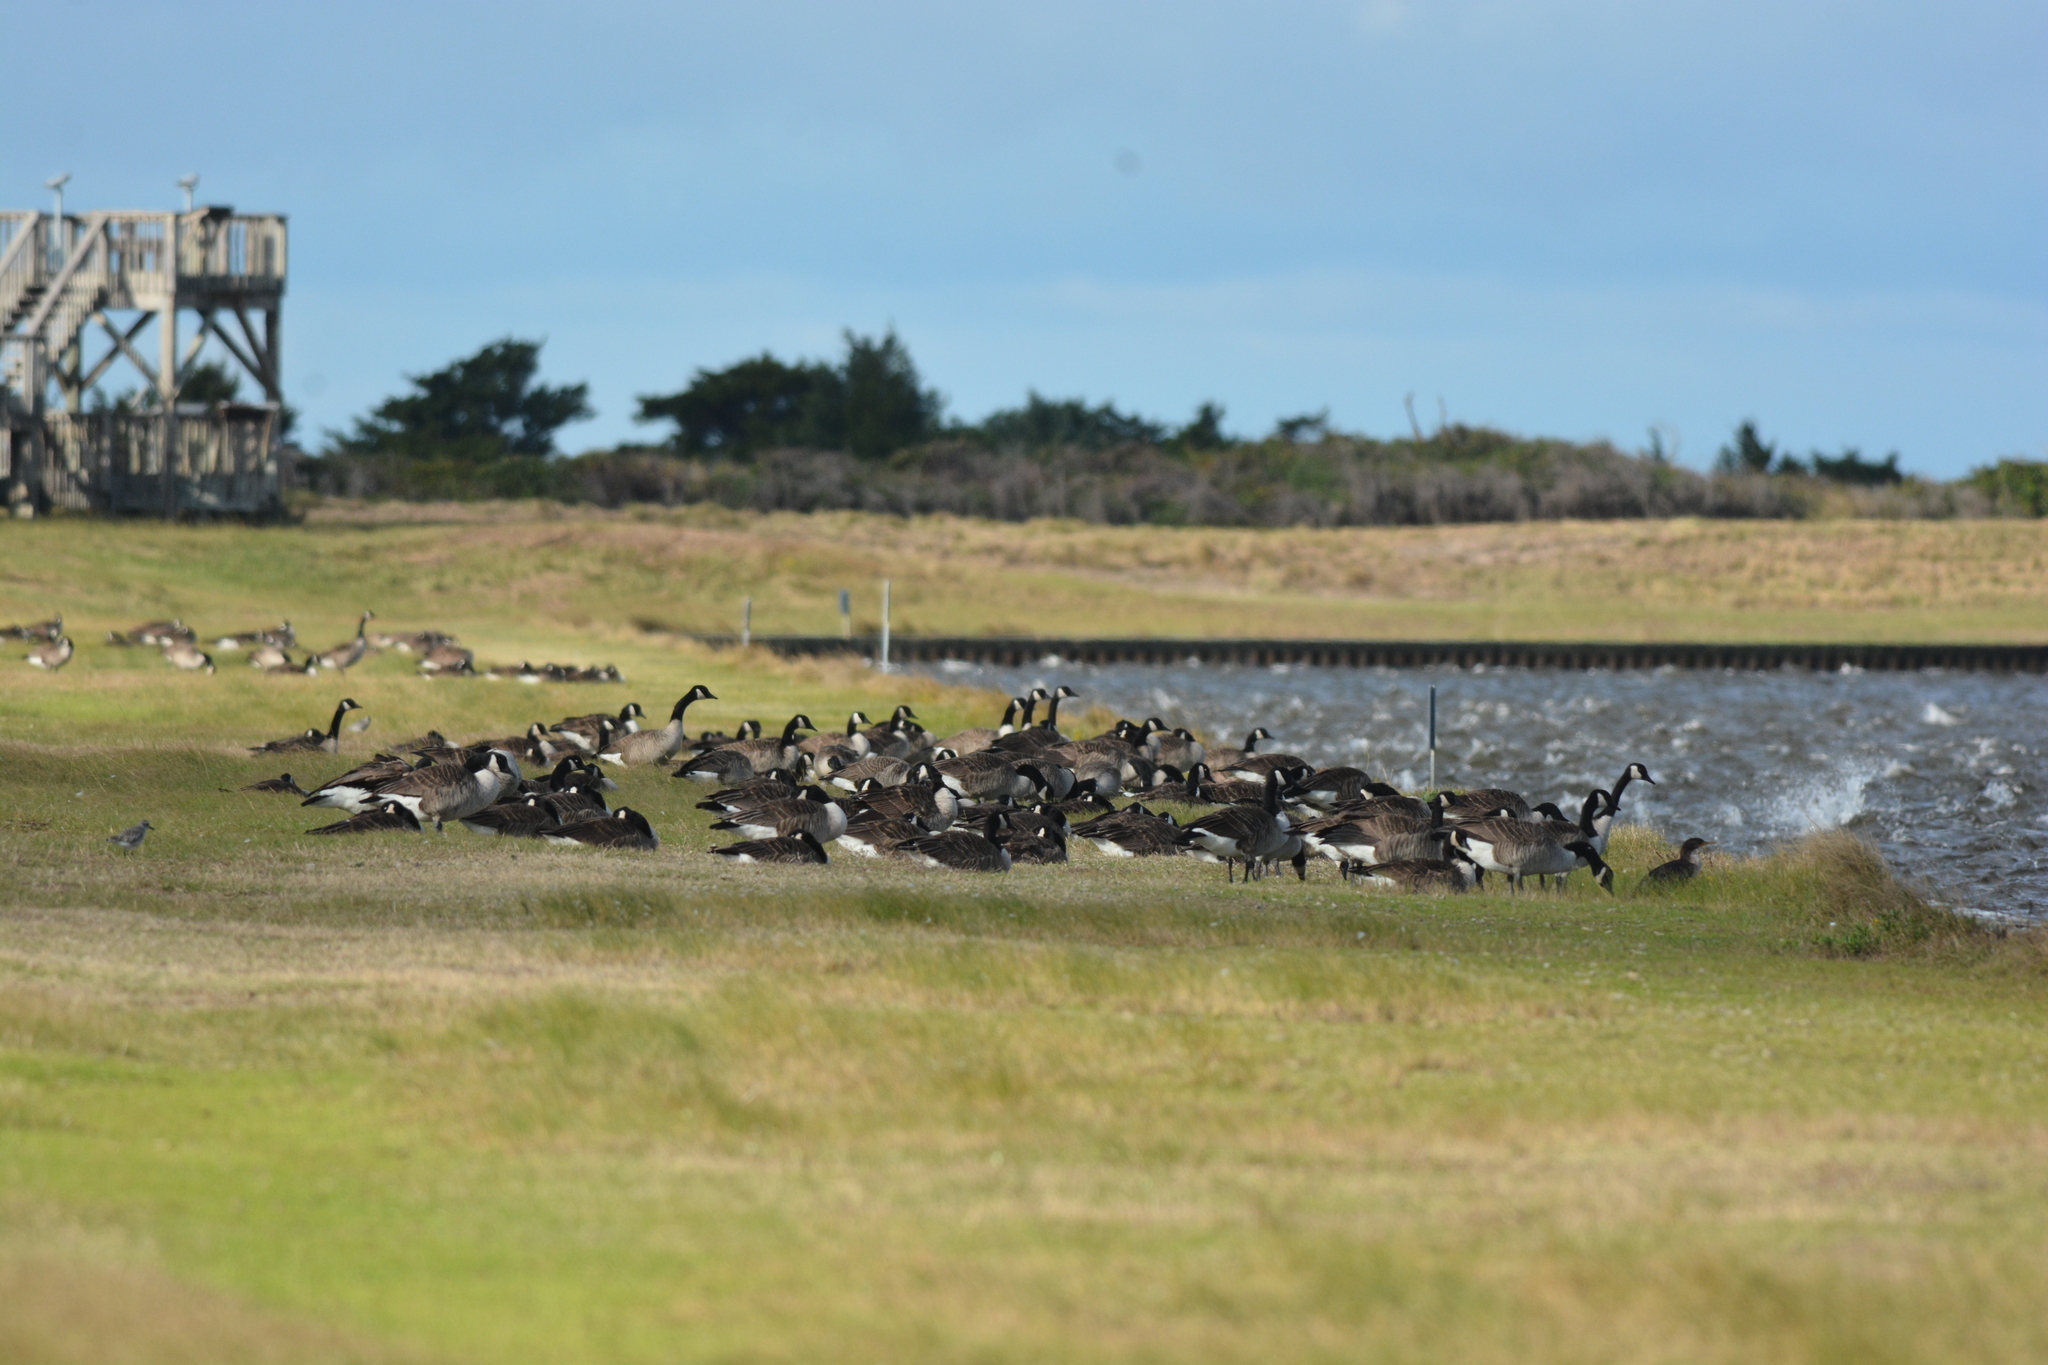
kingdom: Animalia
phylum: Chordata
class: Aves
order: Anseriformes
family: Anatidae
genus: Branta
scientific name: Branta canadensis
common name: Canada goose
